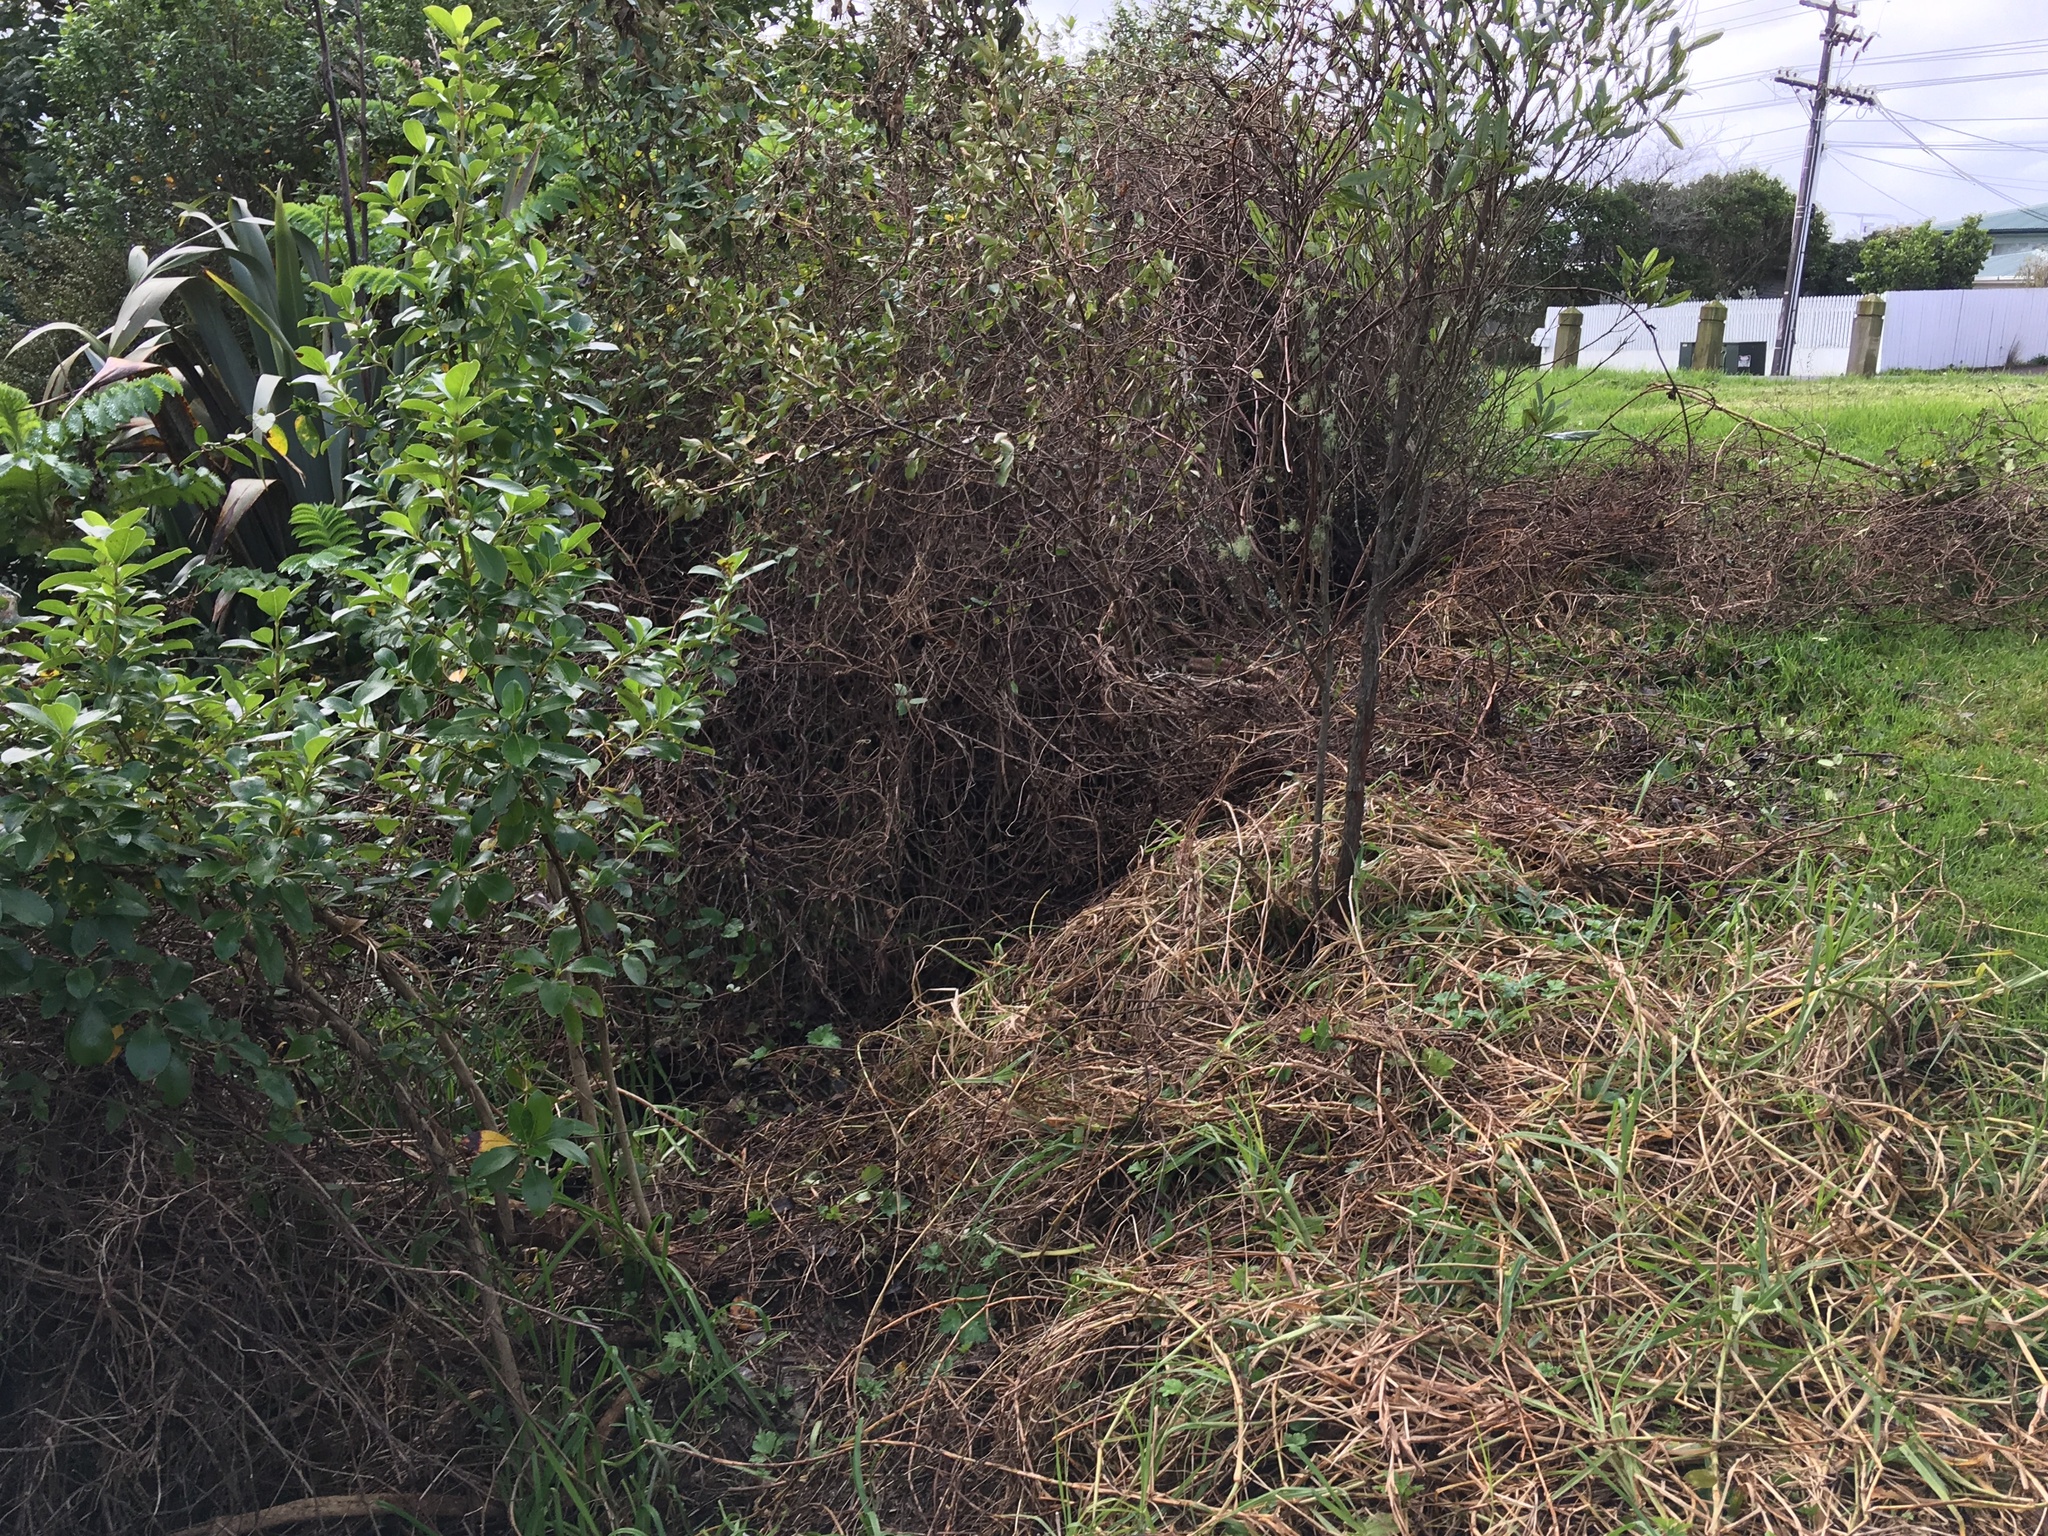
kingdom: Plantae
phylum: Tracheophyta
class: Magnoliopsida
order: Gentianales
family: Rubiaceae
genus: Coprosma
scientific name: Coprosma robusta
